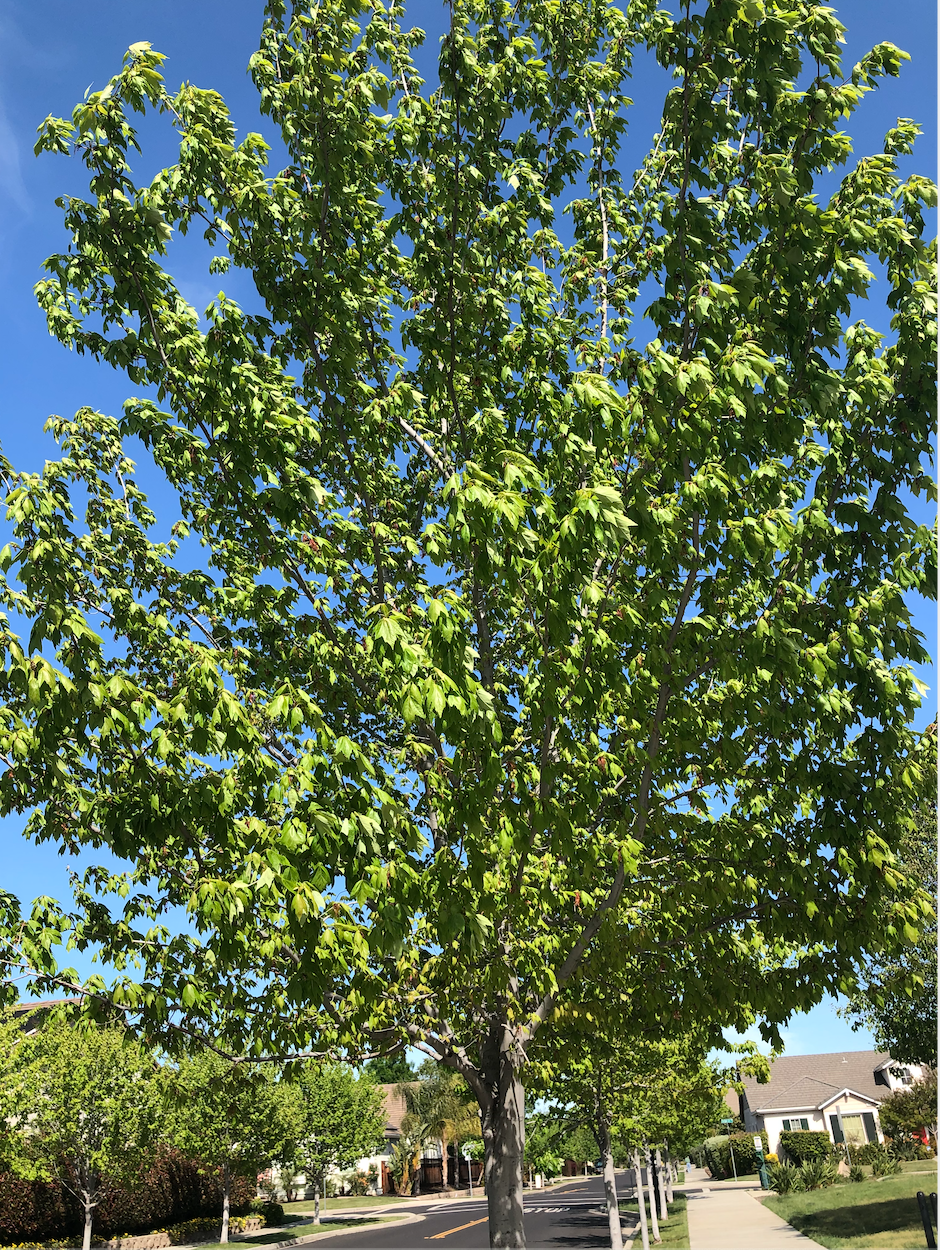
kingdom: Plantae
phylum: Tracheophyta
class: Magnoliopsida
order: Sapindales
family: Sapindaceae
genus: Acer
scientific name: Acer rubrum
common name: Red maple
